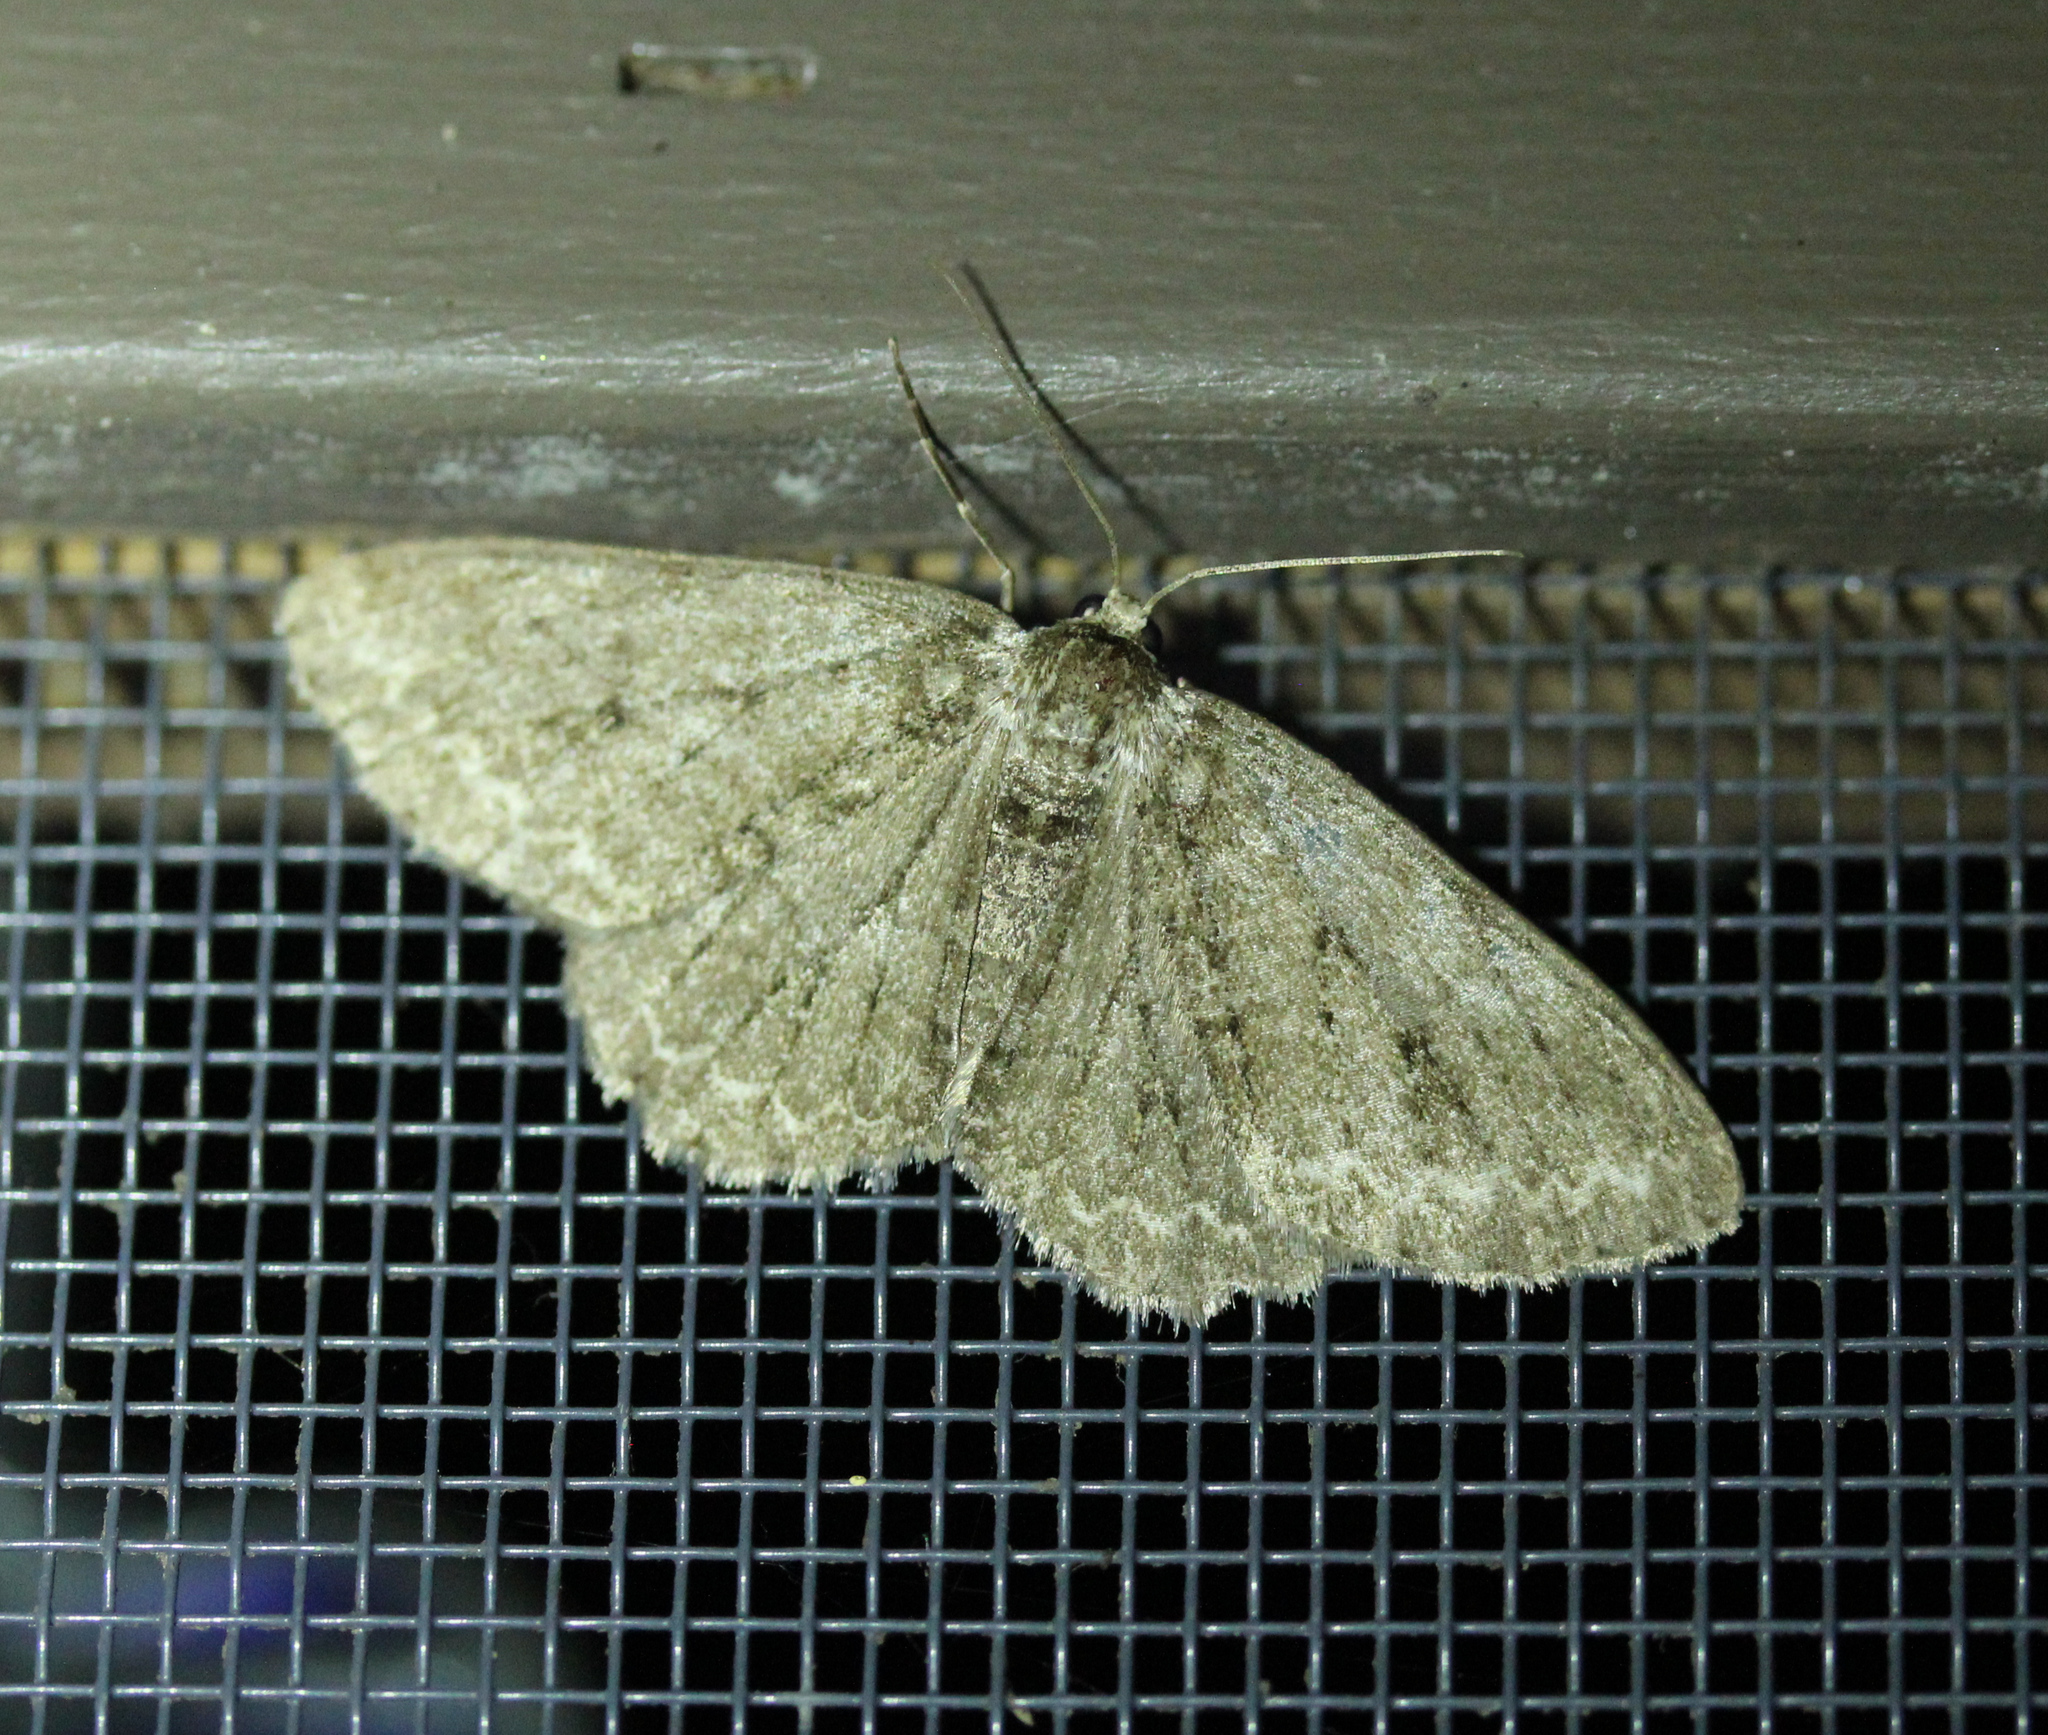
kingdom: Animalia
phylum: Arthropoda
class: Insecta
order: Lepidoptera
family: Geometridae
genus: Ectropis
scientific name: Ectropis crepuscularia
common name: Engrailed
